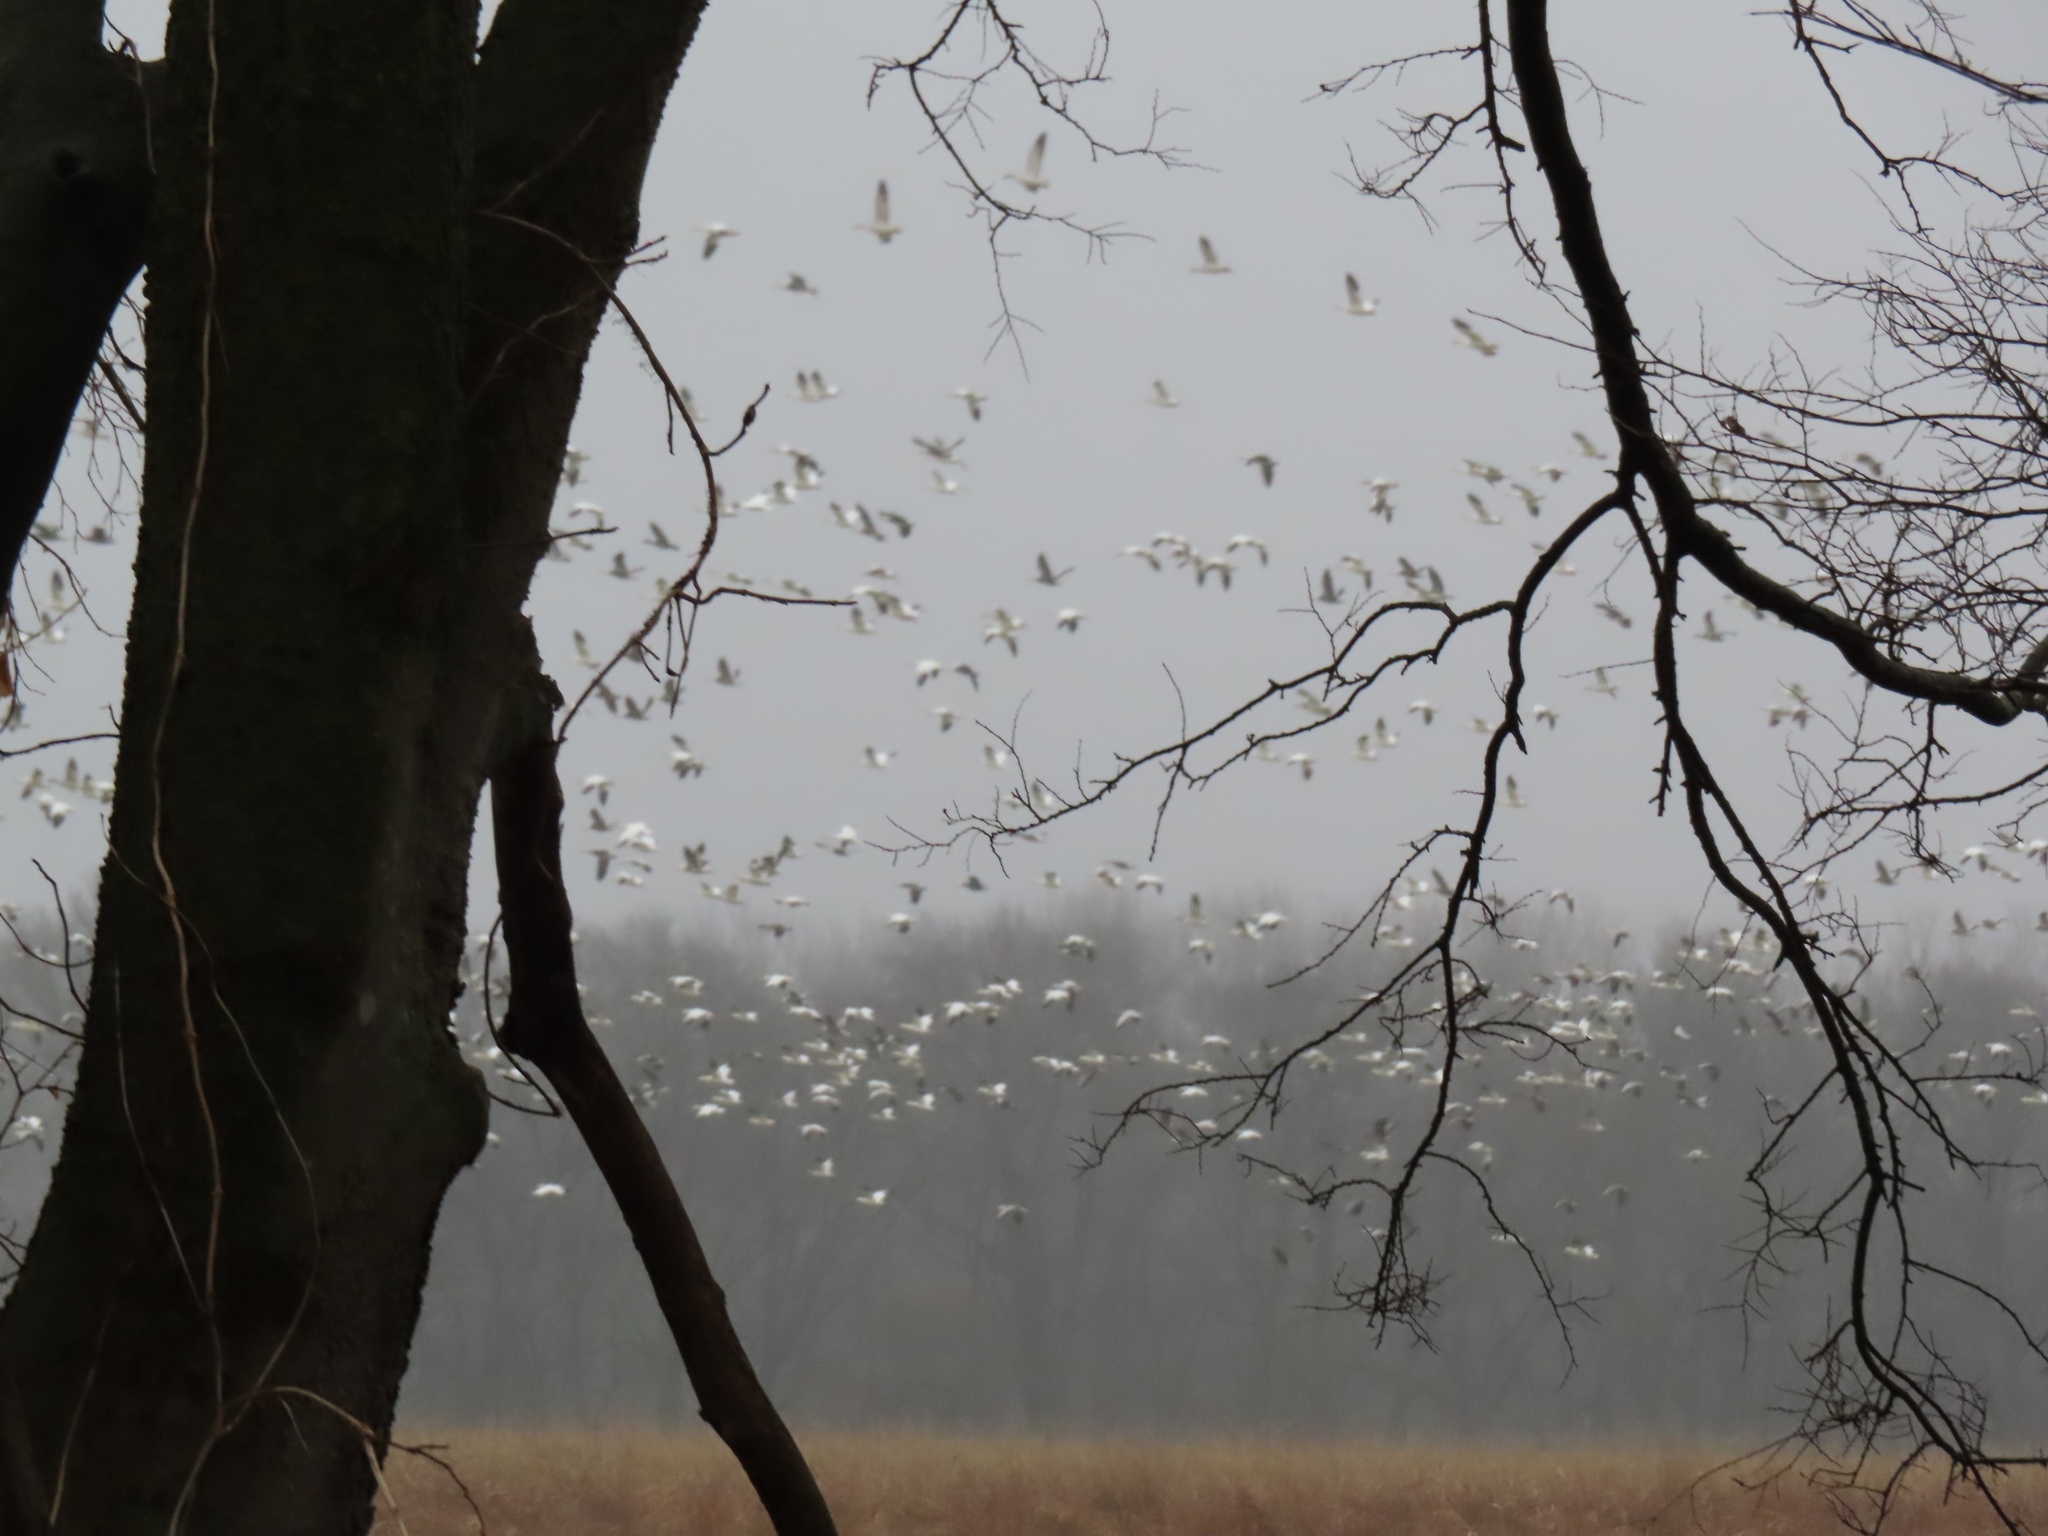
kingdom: Animalia
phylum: Chordata
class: Aves
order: Anseriformes
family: Anatidae
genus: Anser
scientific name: Anser caerulescens
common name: Snow goose
